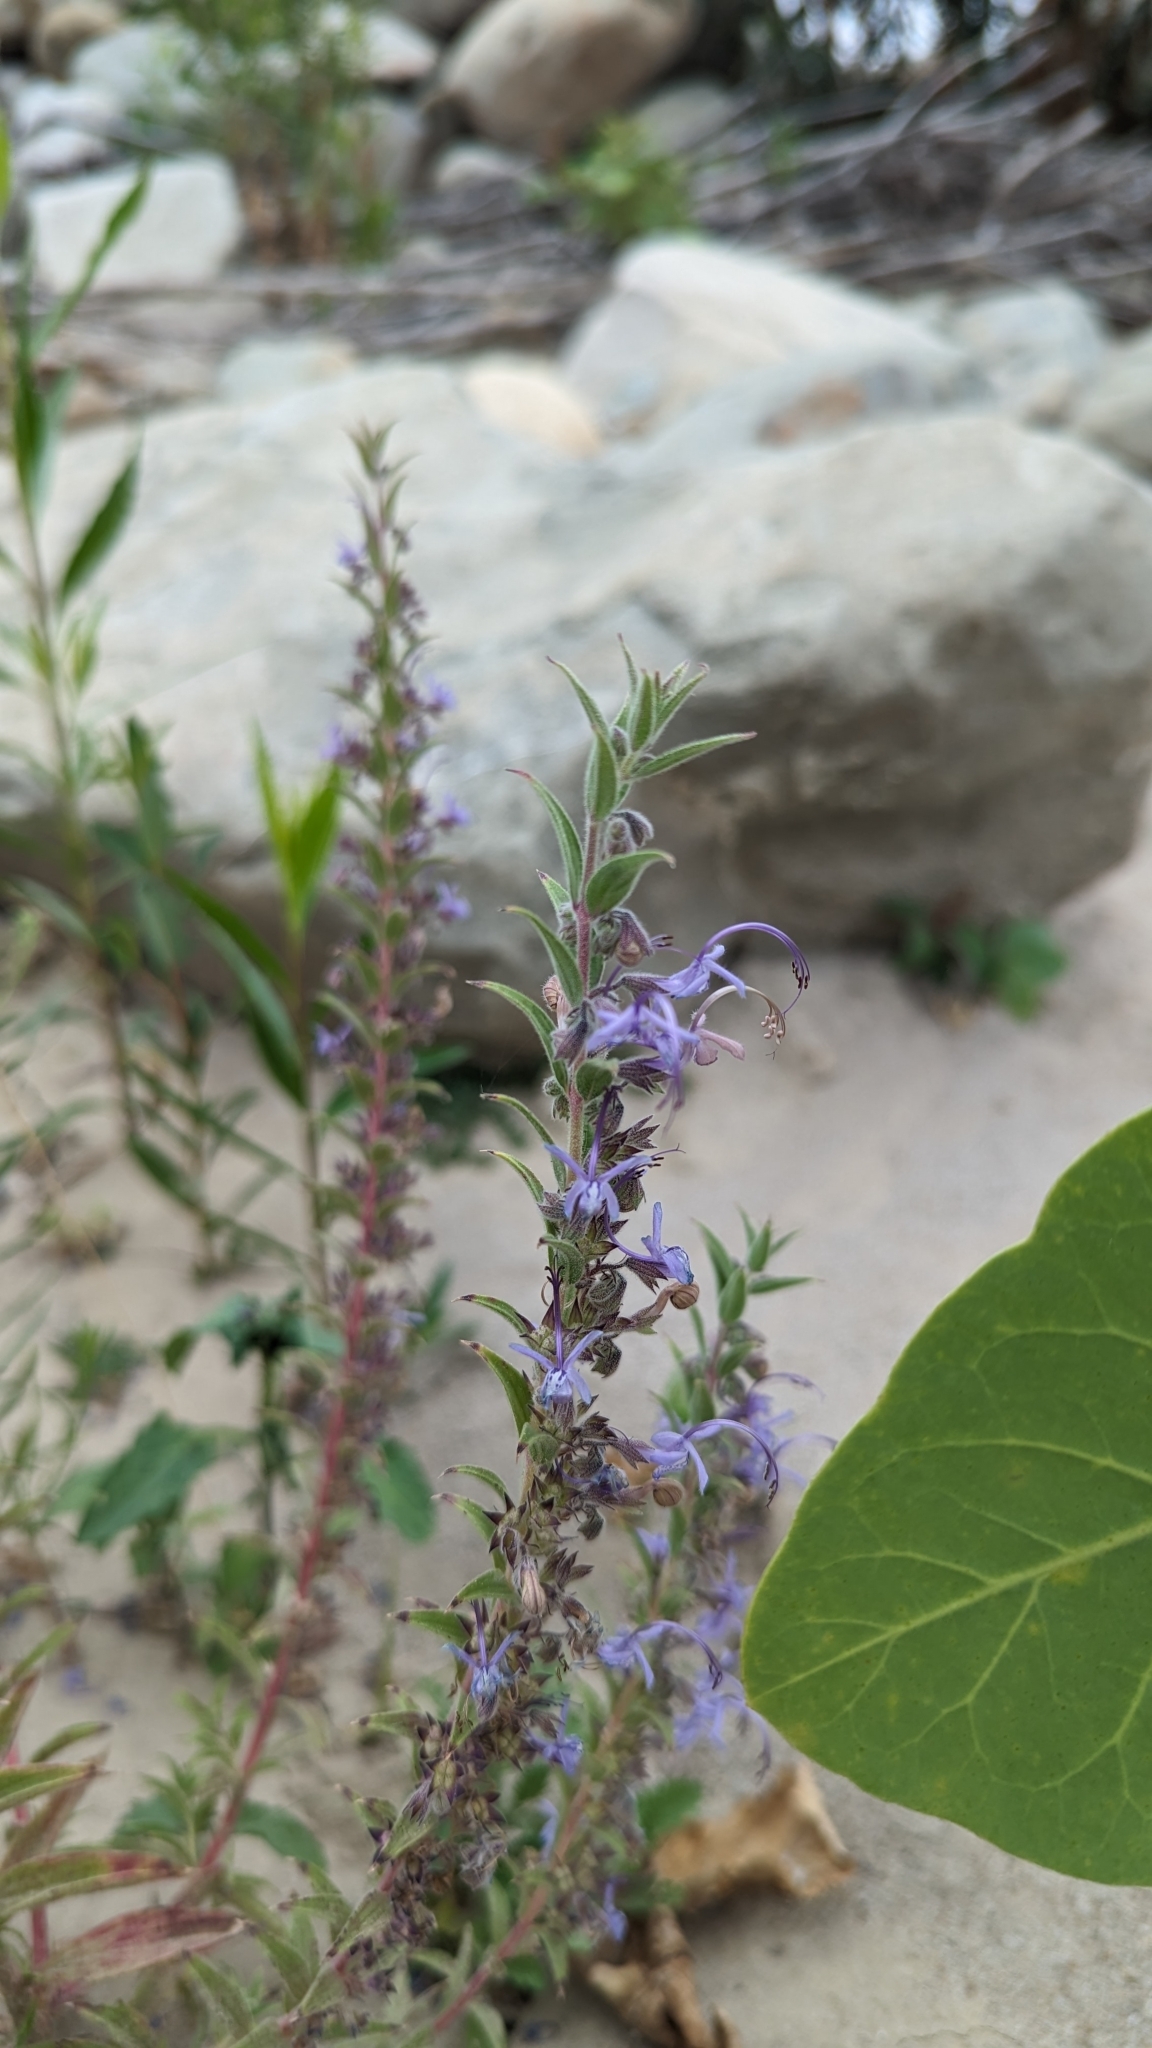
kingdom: Plantae
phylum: Tracheophyta
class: Magnoliopsida
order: Lamiales
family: Lamiaceae
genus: Trichostema
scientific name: Trichostema lanceolatum
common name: Vinegar-weed
